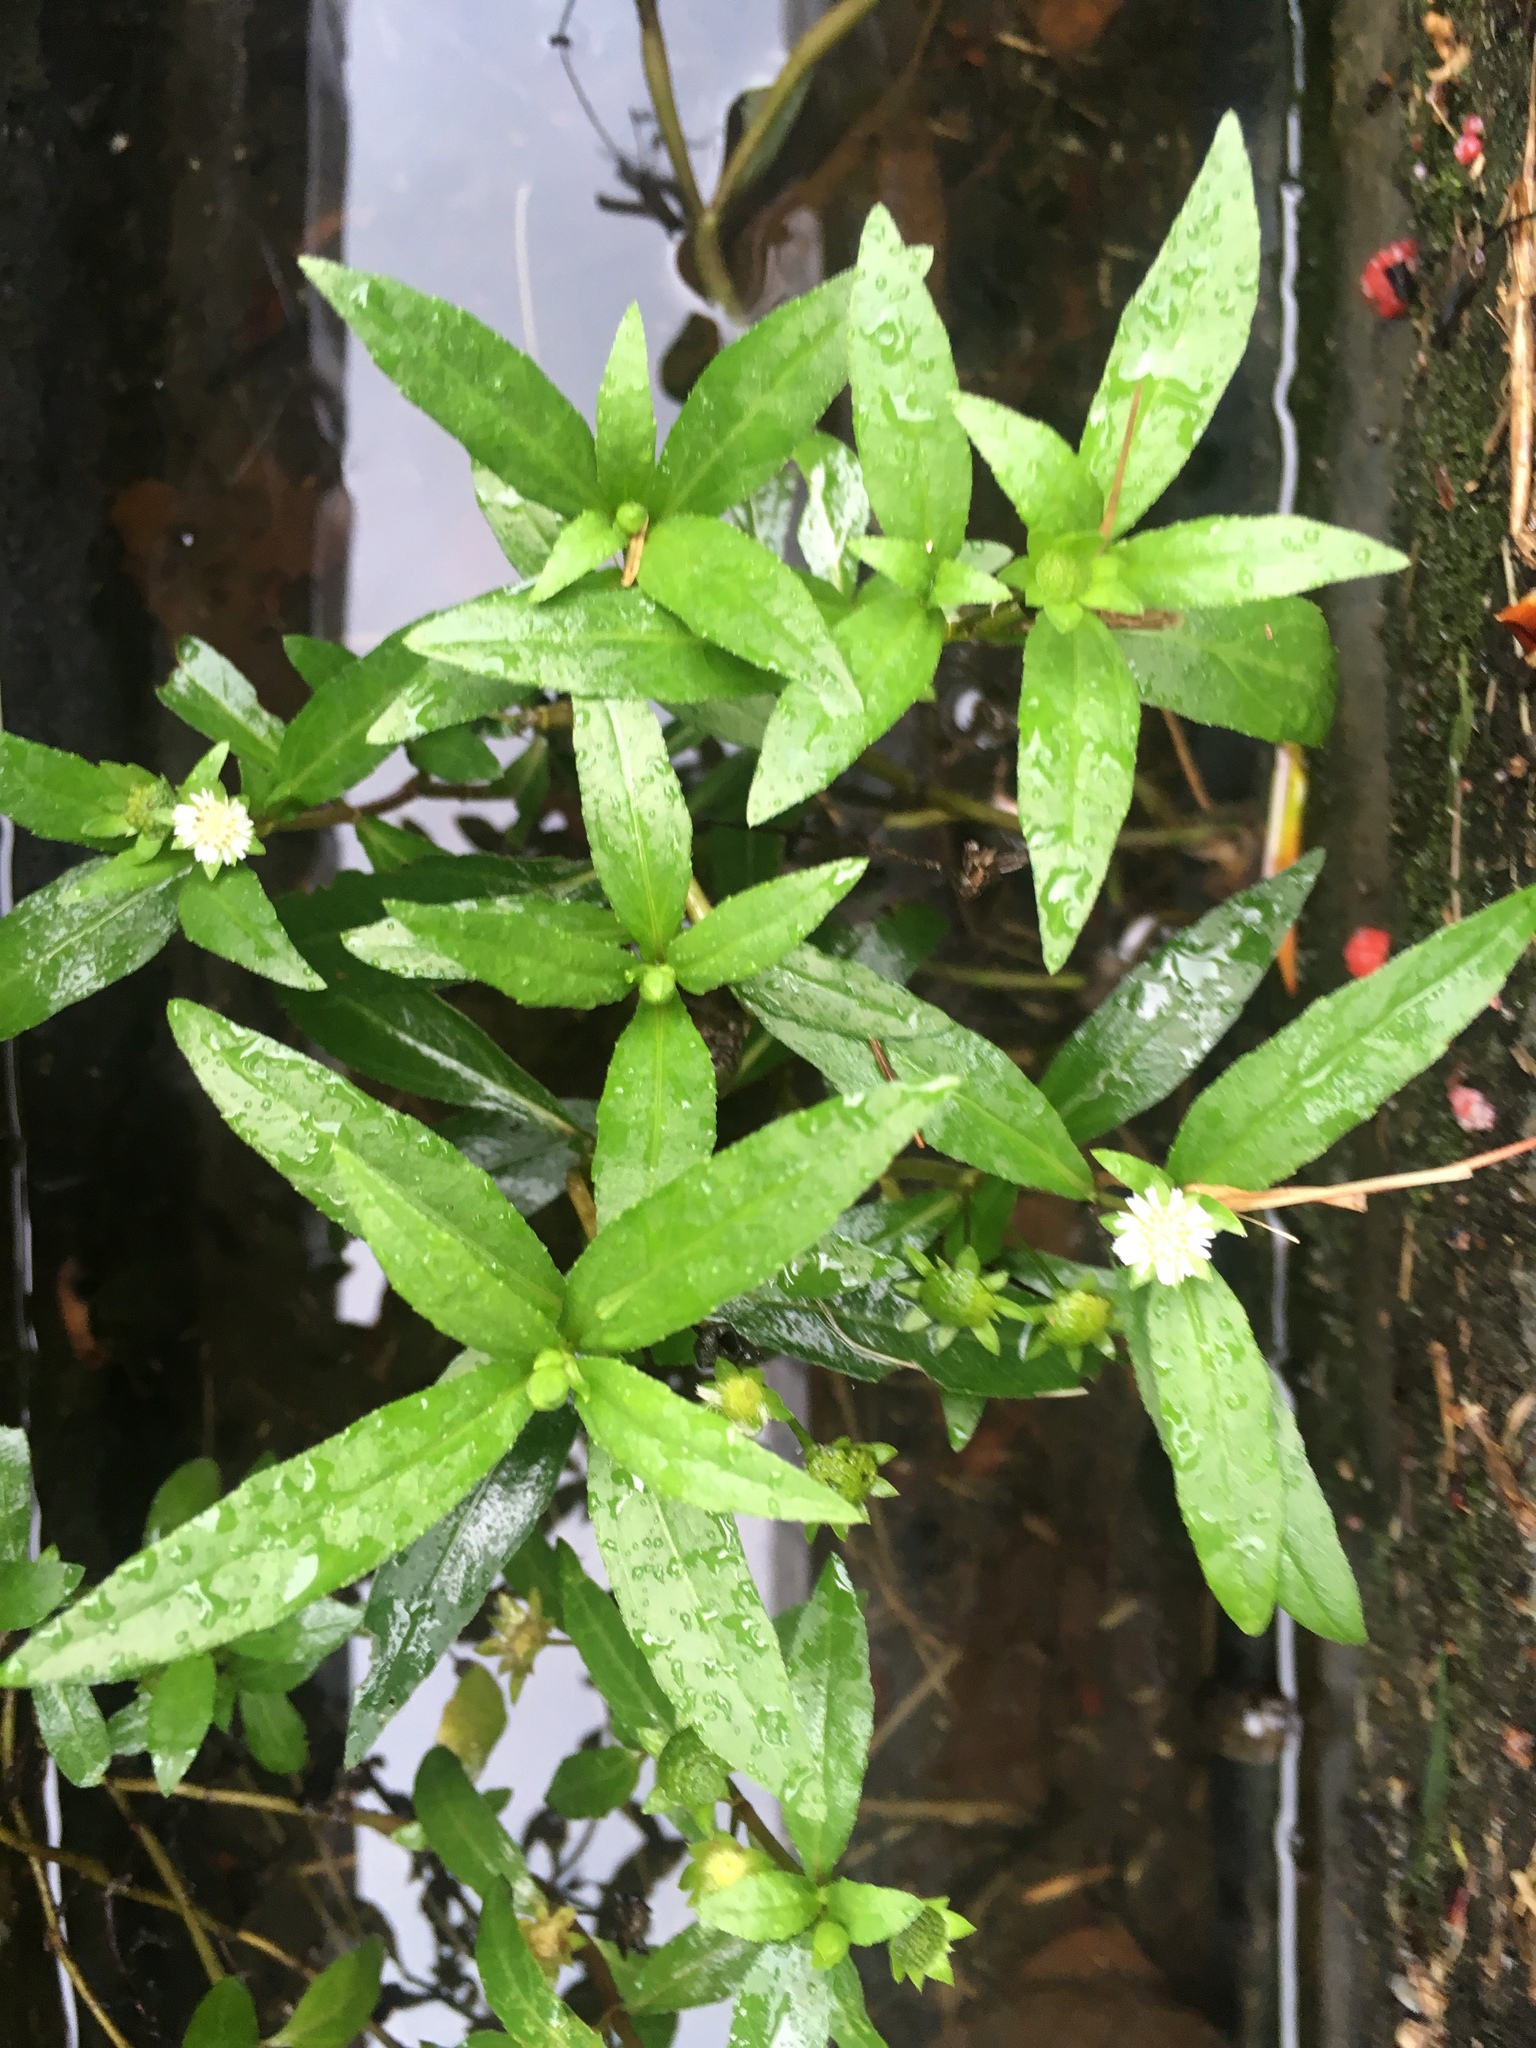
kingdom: Plantae
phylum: Tracheophyta
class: Magnoliopsida
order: Asterales
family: Asteraceae
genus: Eclipta
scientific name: Eclipta prostrata
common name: False daisy
